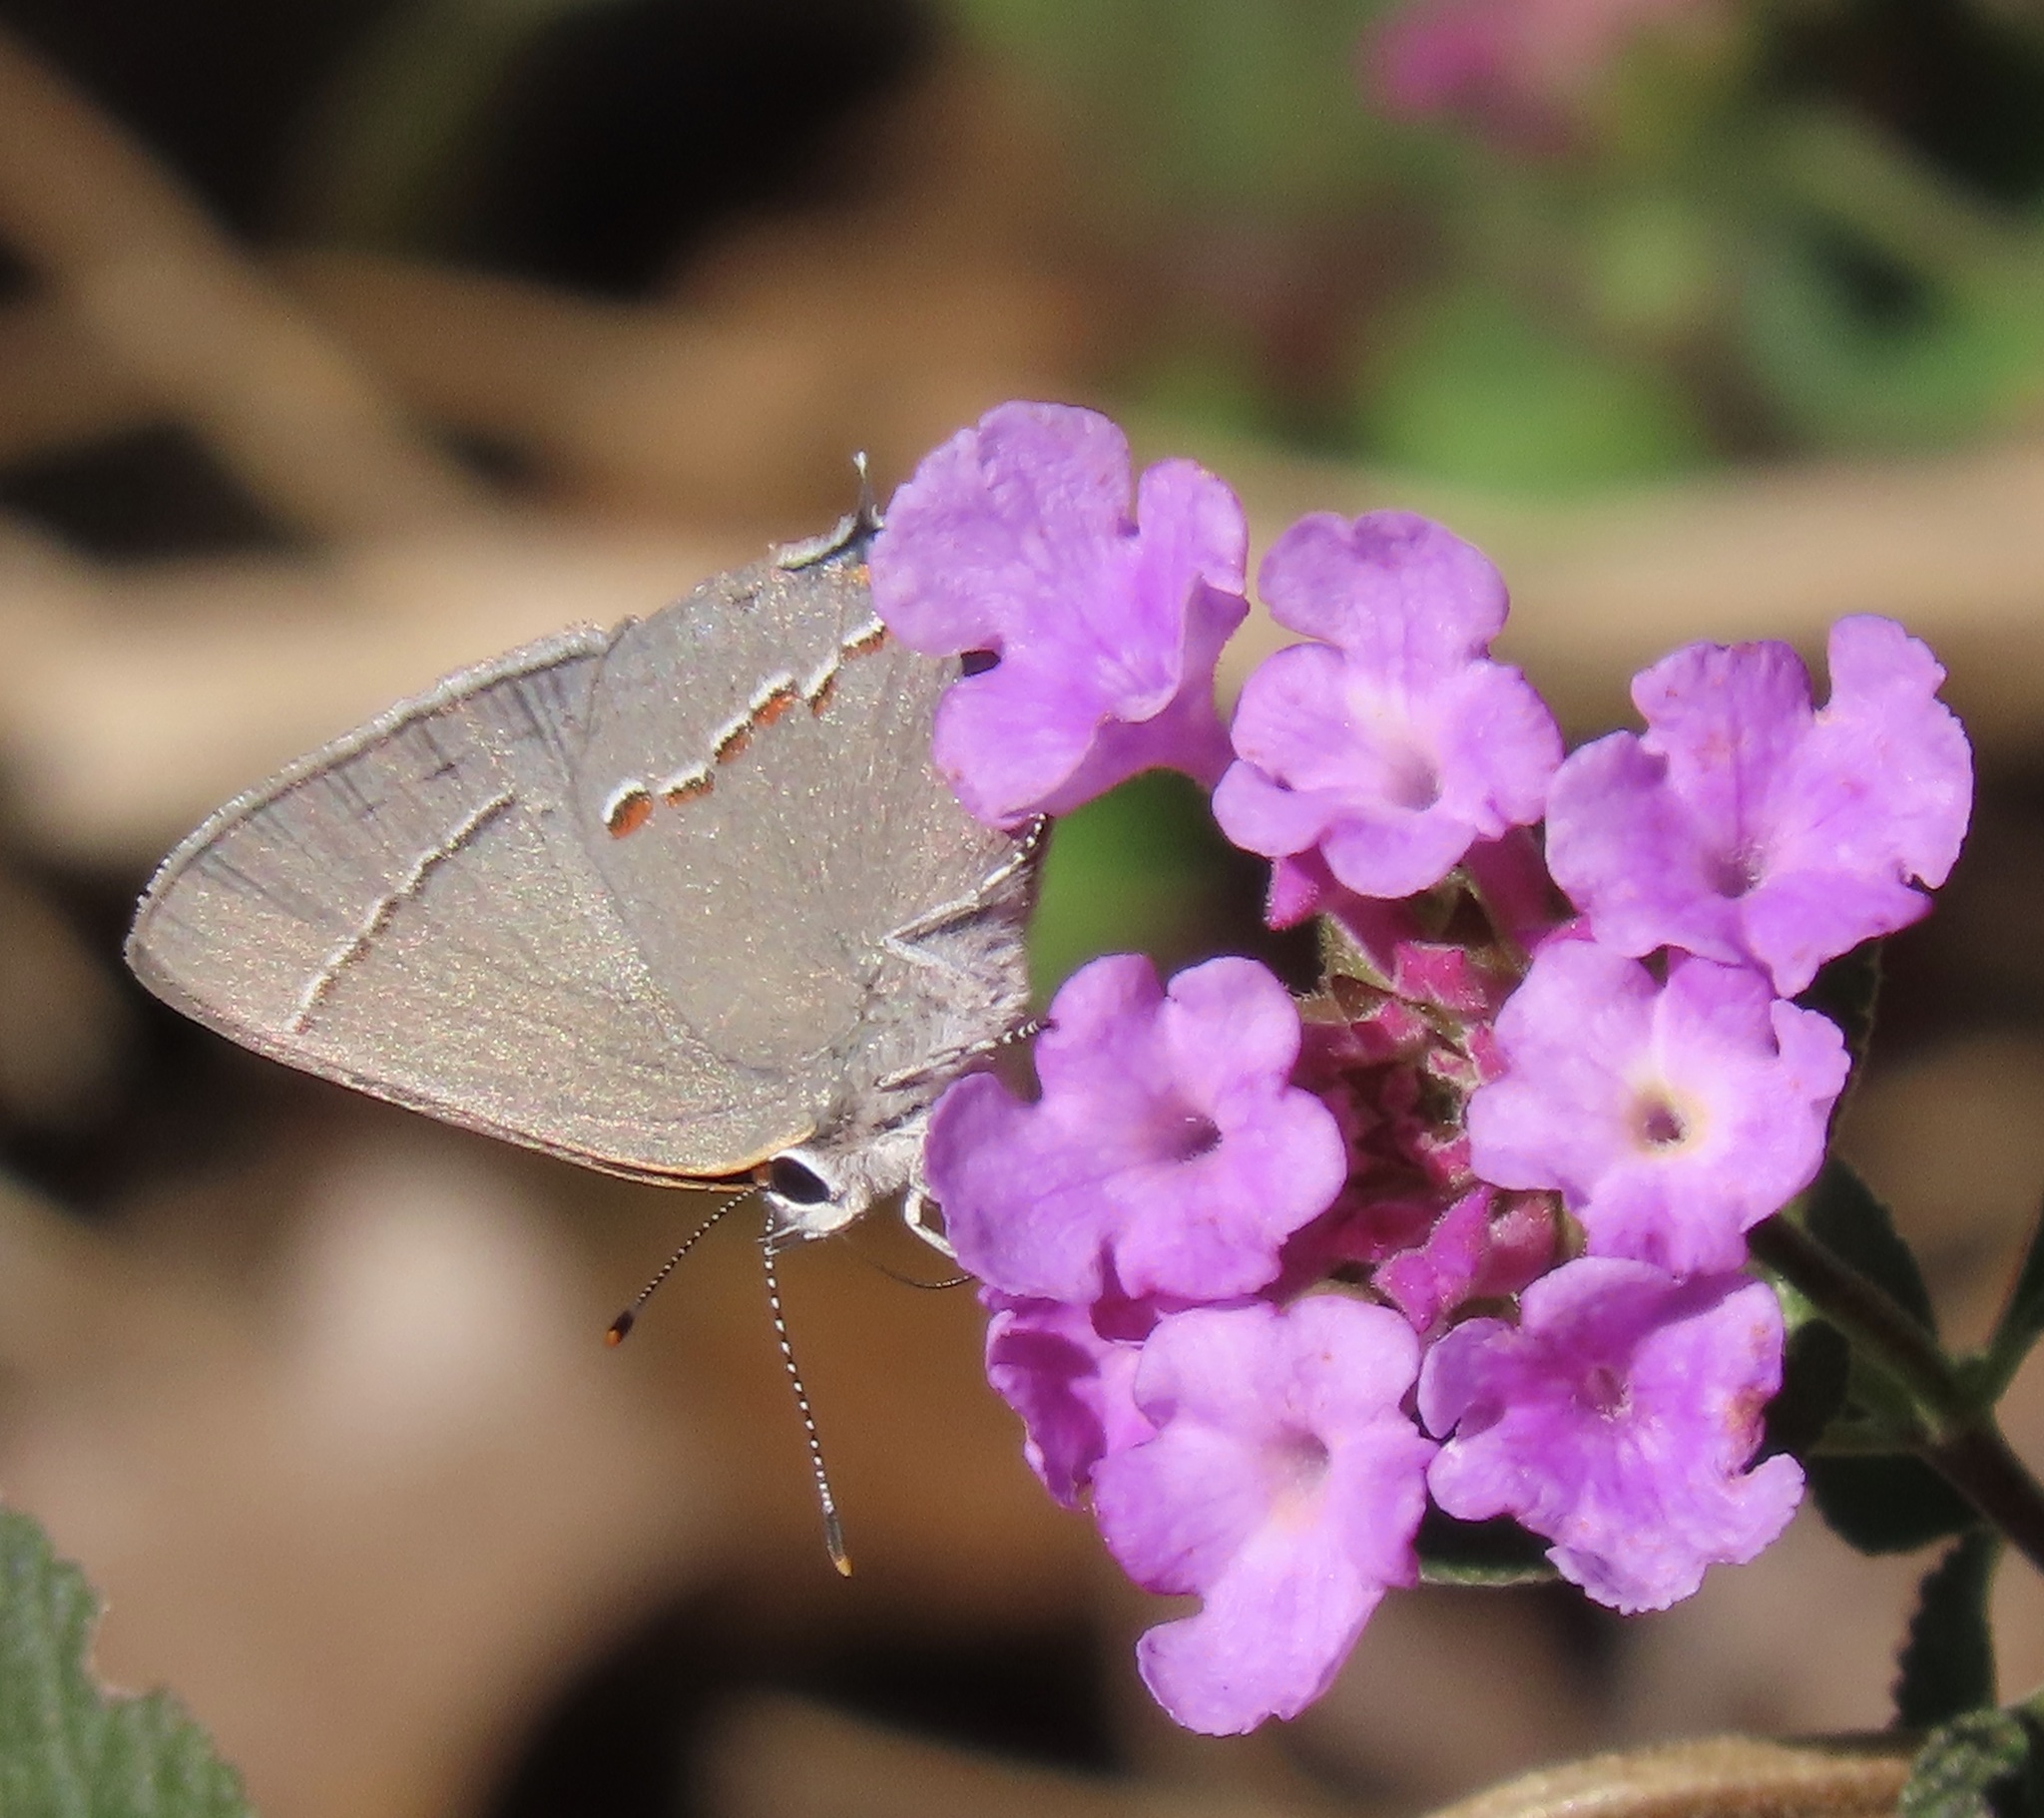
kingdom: Animalia
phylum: Arthropoda
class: Insecta
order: Lepidoptera
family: Lycaenidae
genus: Strymon
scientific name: Strymon melinus
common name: Gray hairstreak
